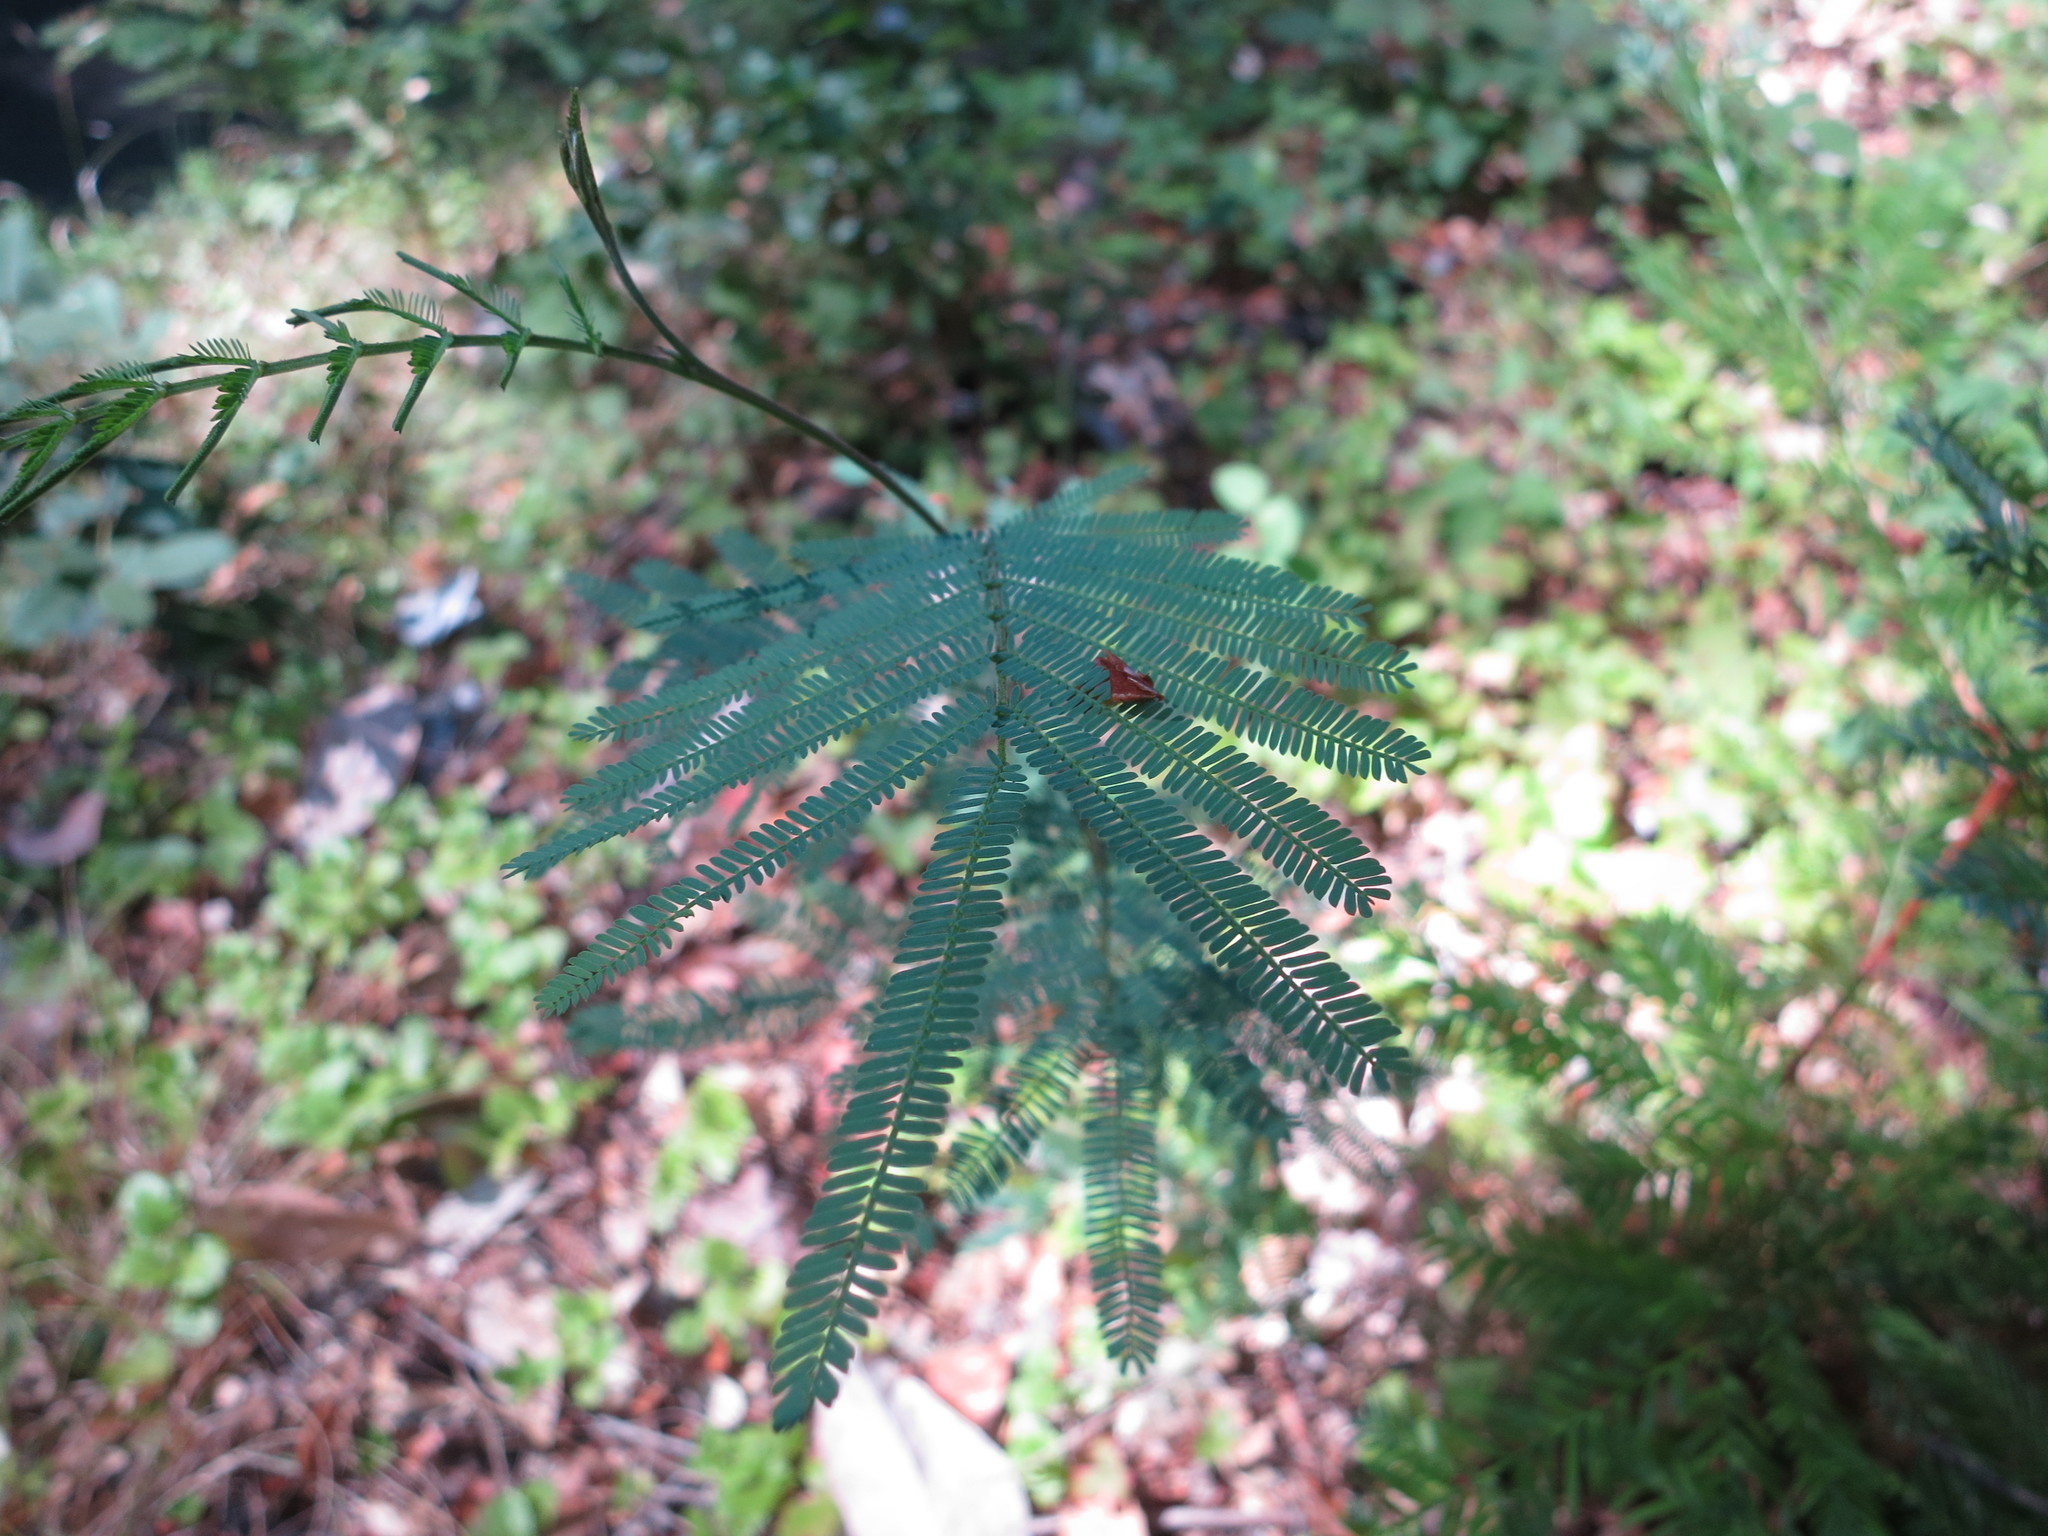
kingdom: Plantae
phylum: Tracheophyta
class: Magnoliopsida
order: Fabales
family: Fabaceae
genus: Acacia
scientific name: Acacia dealbata
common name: Silver wattle
